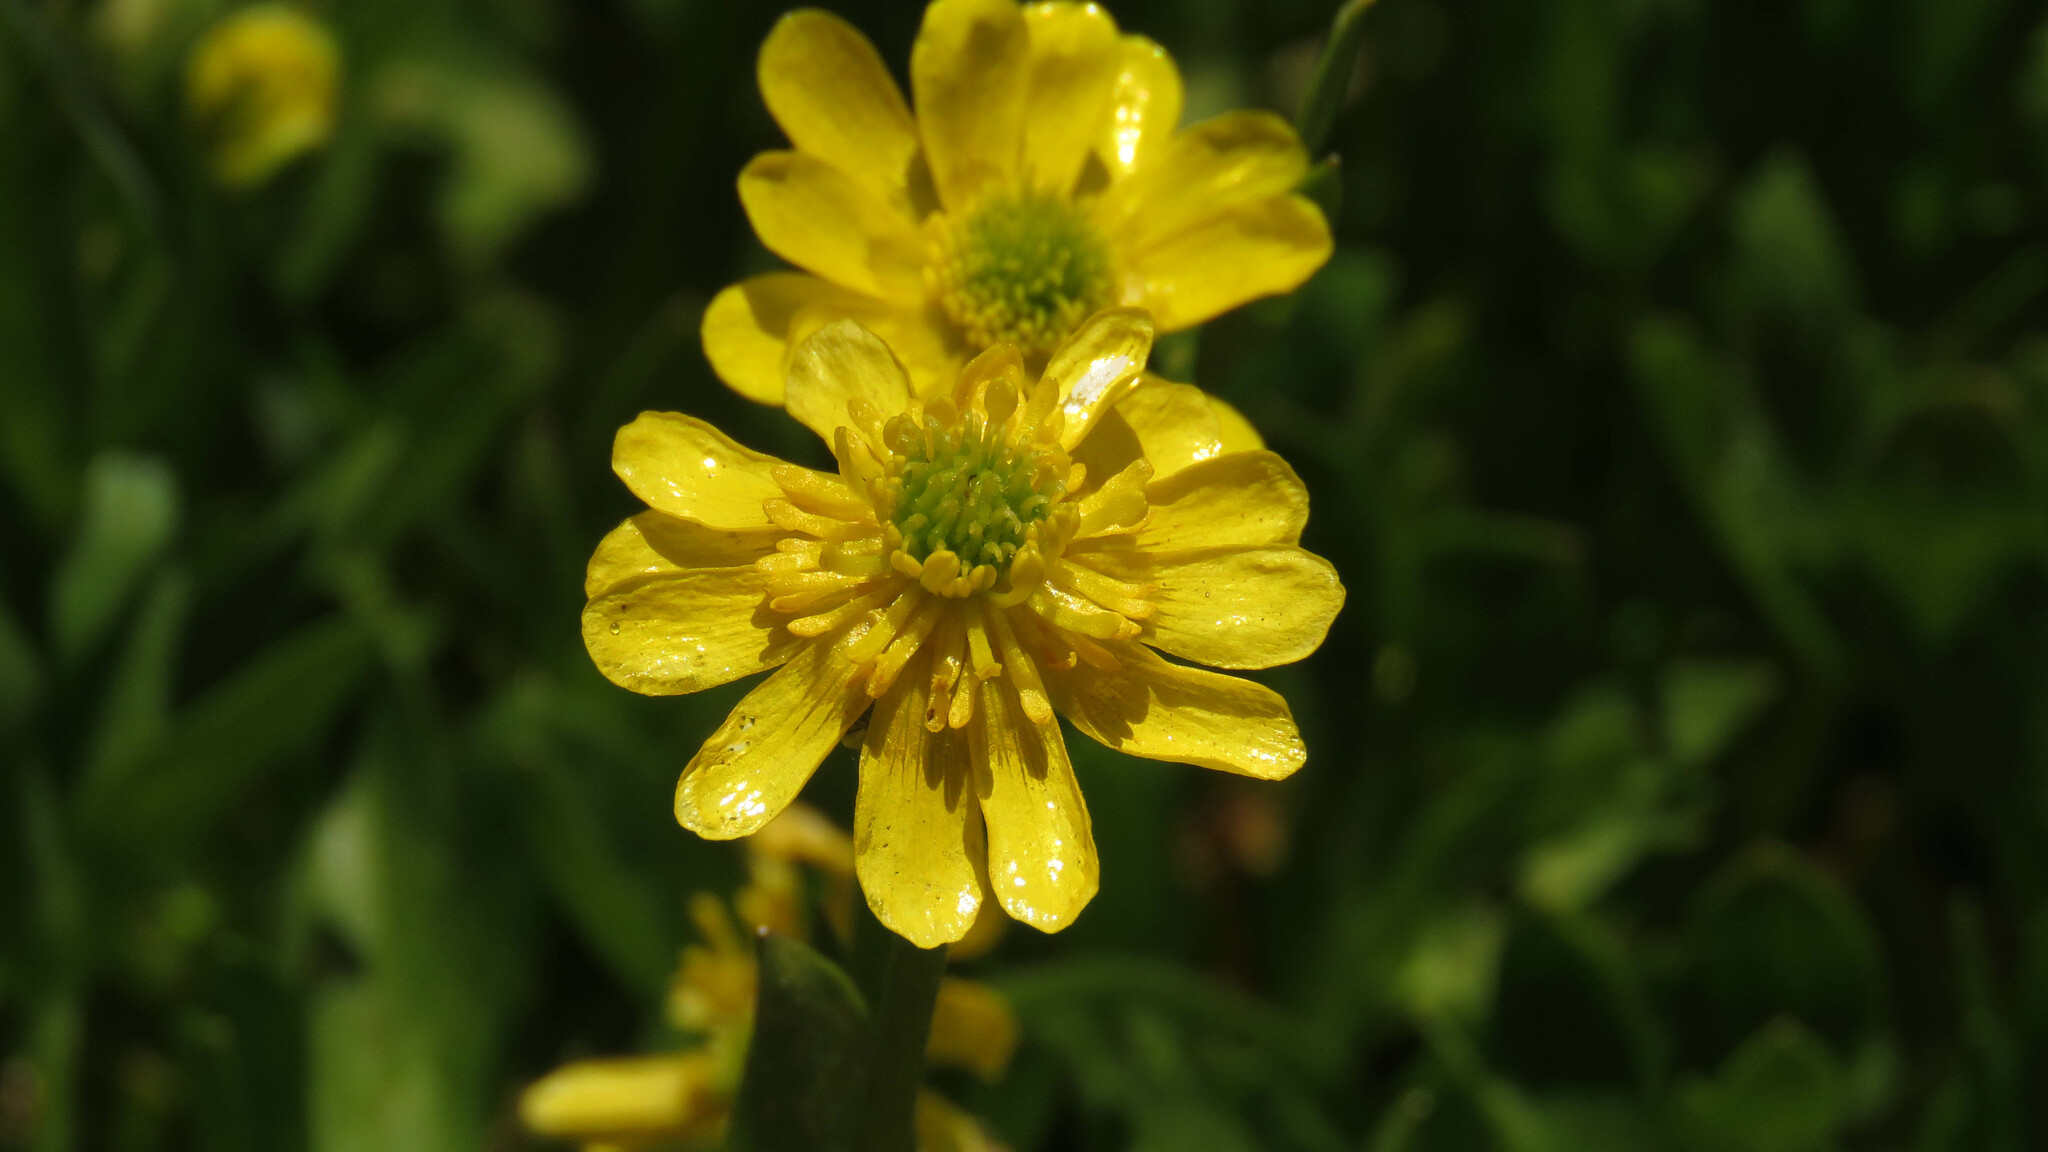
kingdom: Plantae
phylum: Tracheophyta
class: Magnoliopsida
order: Ranunculales
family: Ranunculaceae
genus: Ranunculus
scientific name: Ranunculus peduncularis
